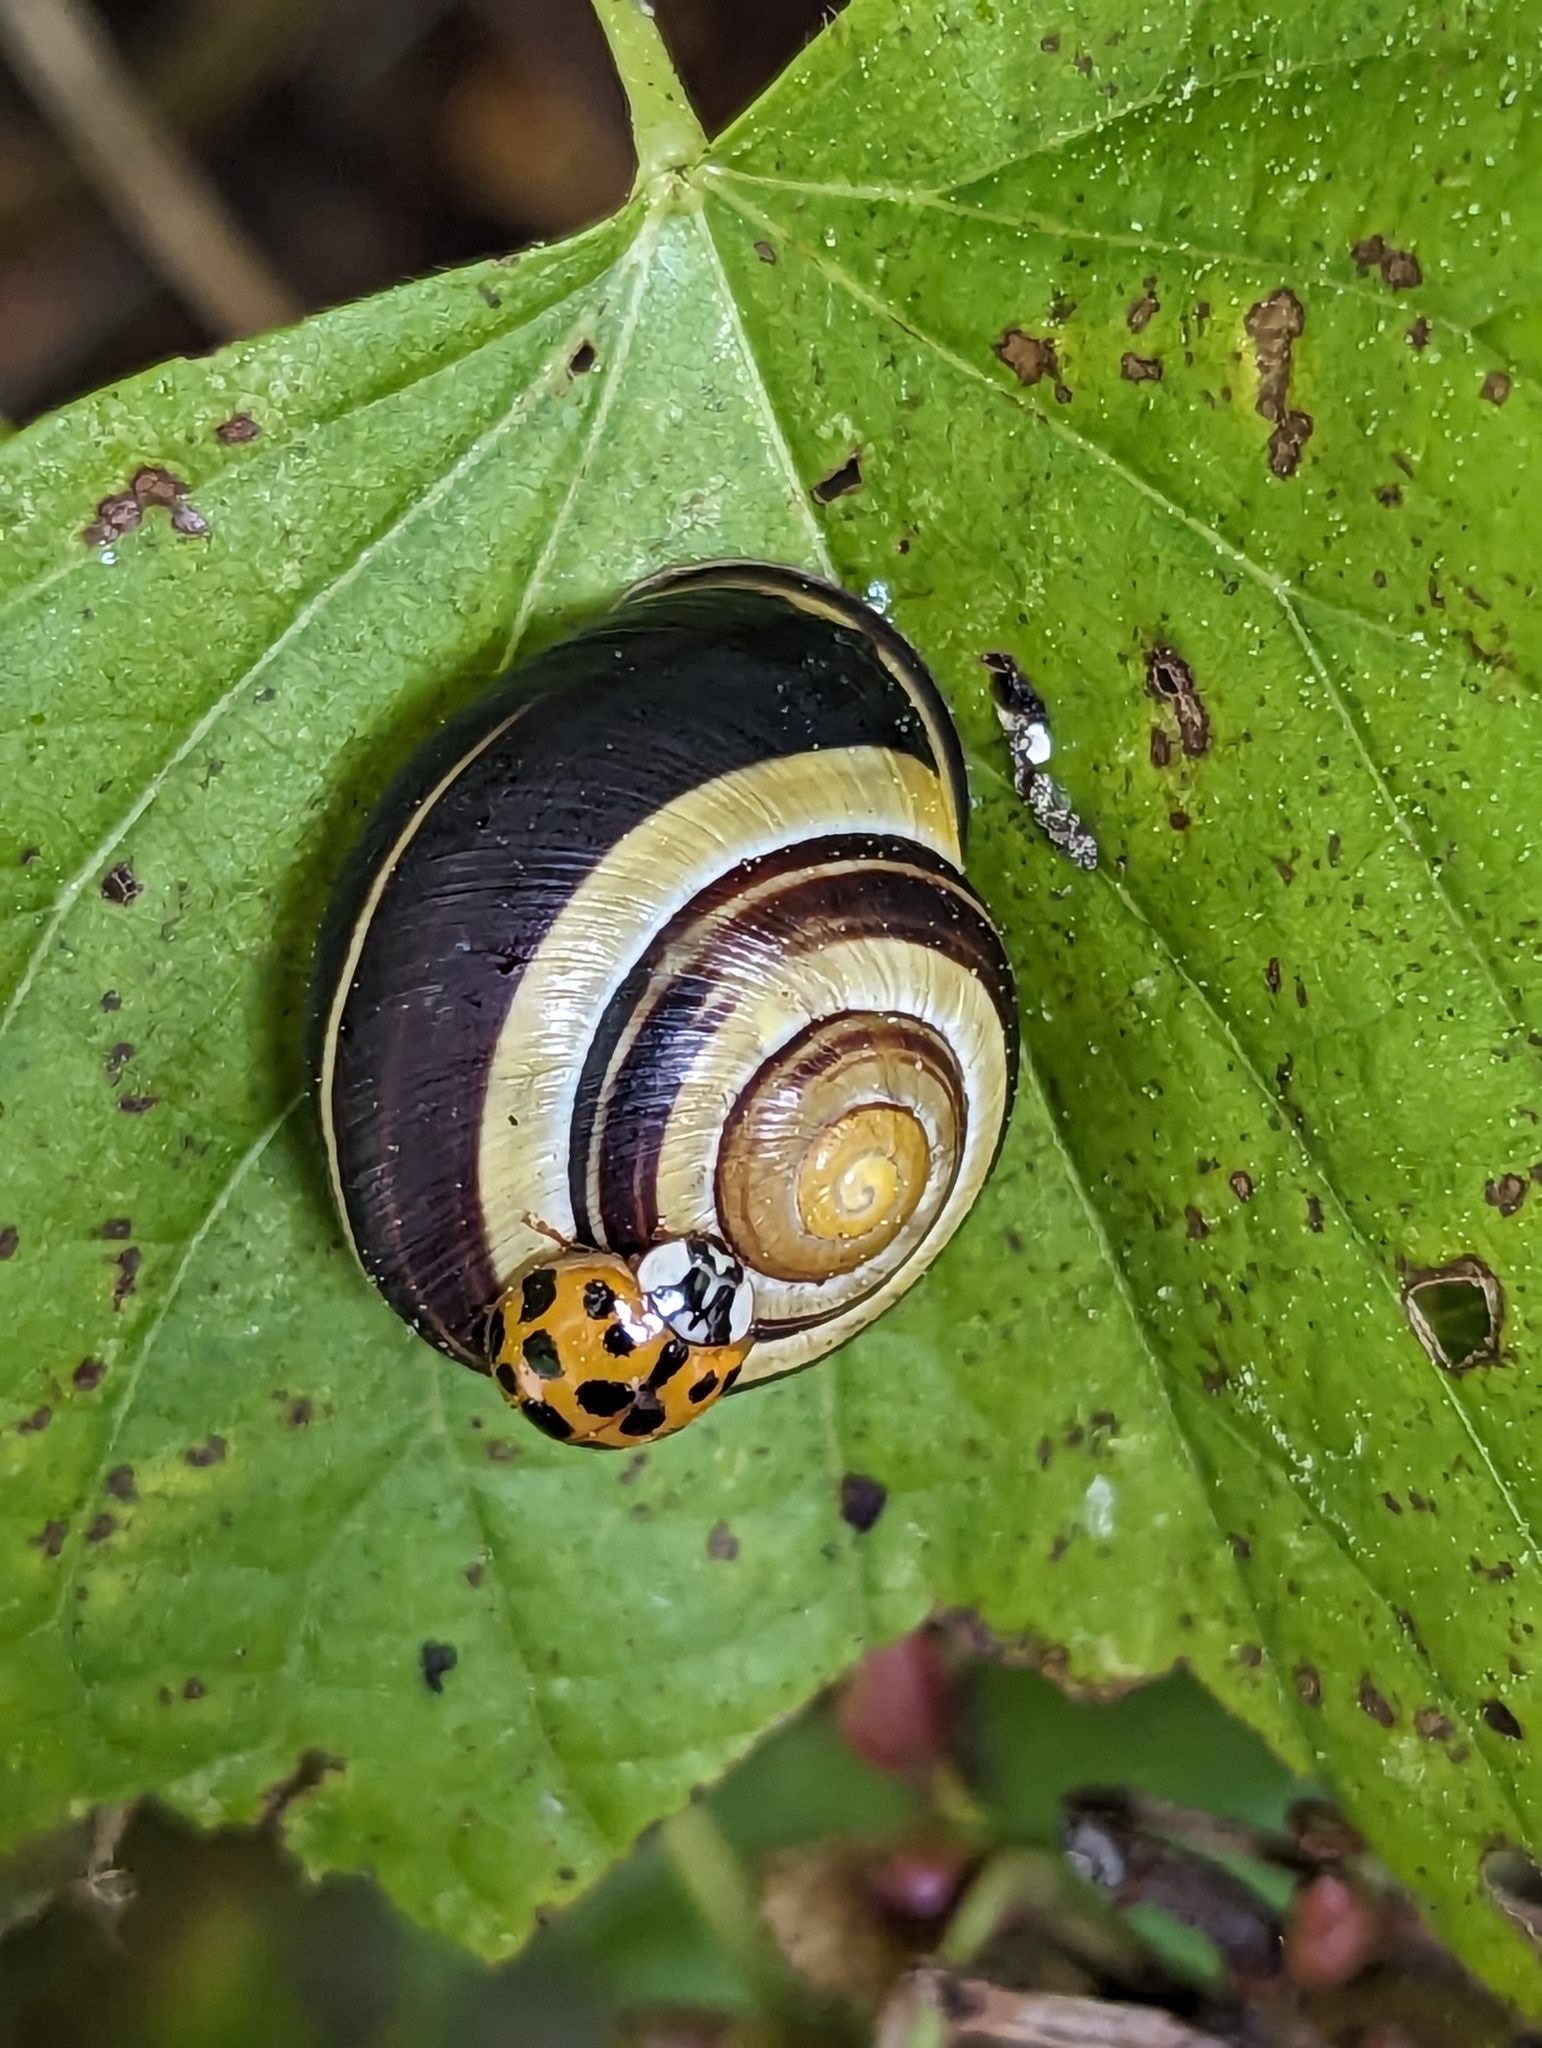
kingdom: Animalia
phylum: Mollusca
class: Gastropoda
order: Stylommatophora
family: Helicidae
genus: Cepaea
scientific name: Cepaea nemoralis
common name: Grovesnail
